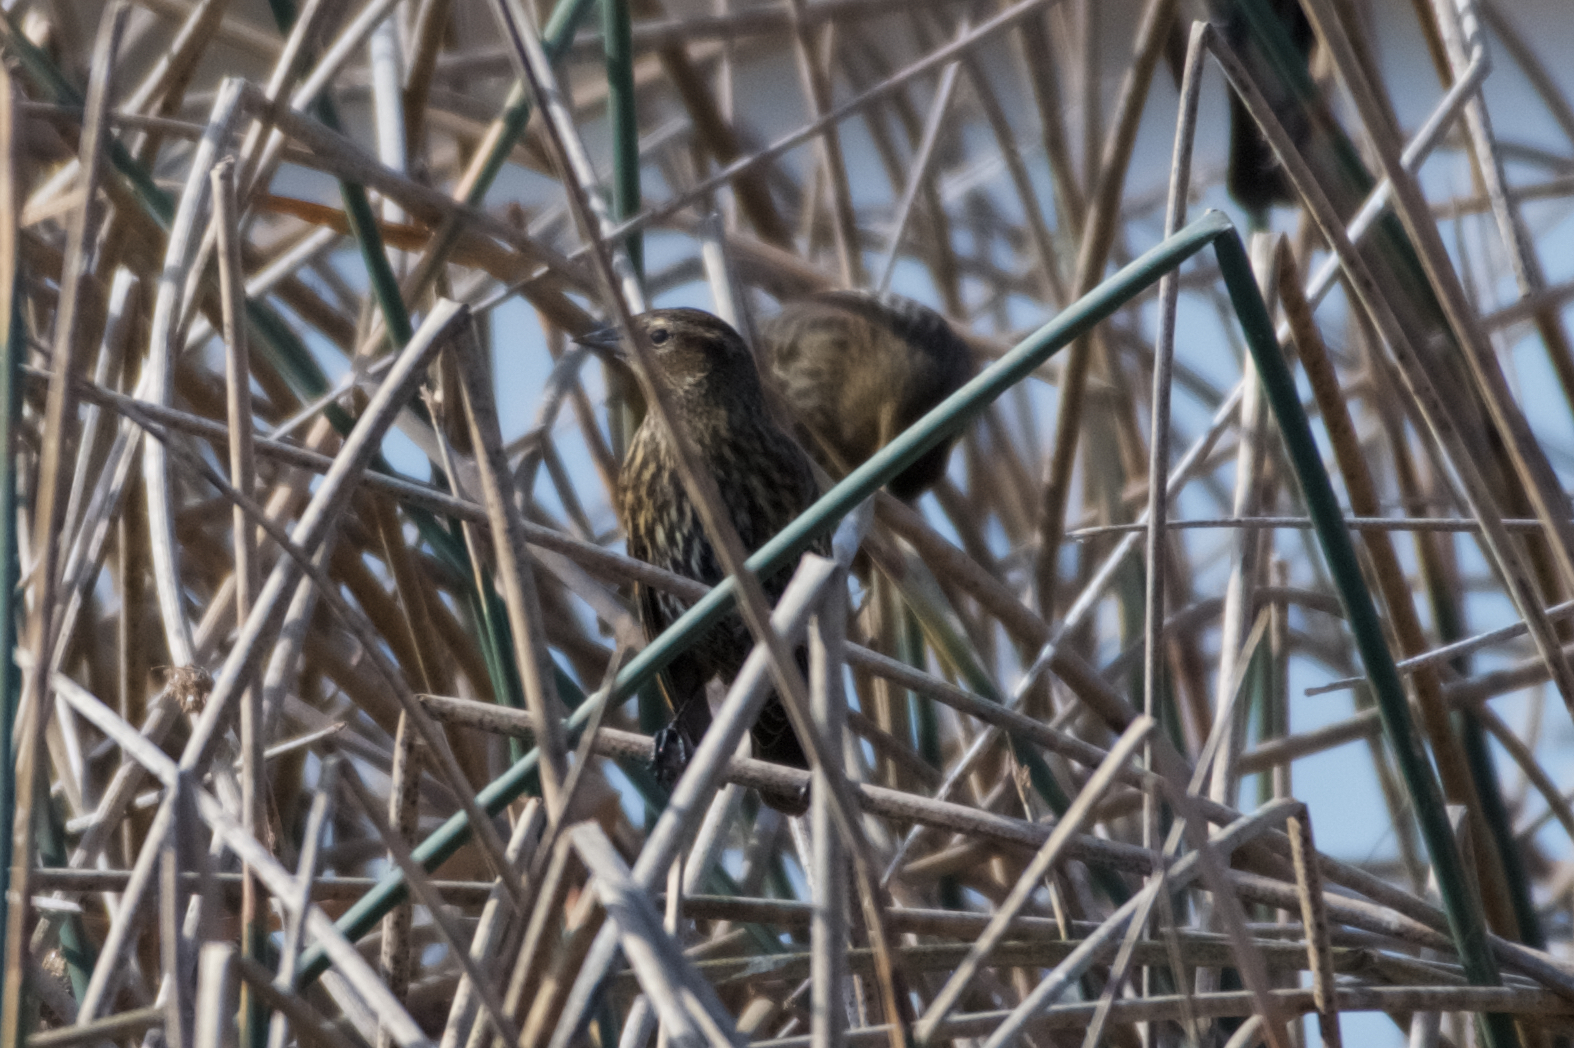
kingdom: Animalia
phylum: Chordata
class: Aves
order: Passeriformes
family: Icteridae
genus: Agelaius
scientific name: Agelaius phoeniceus
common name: Red-winged blackbird
